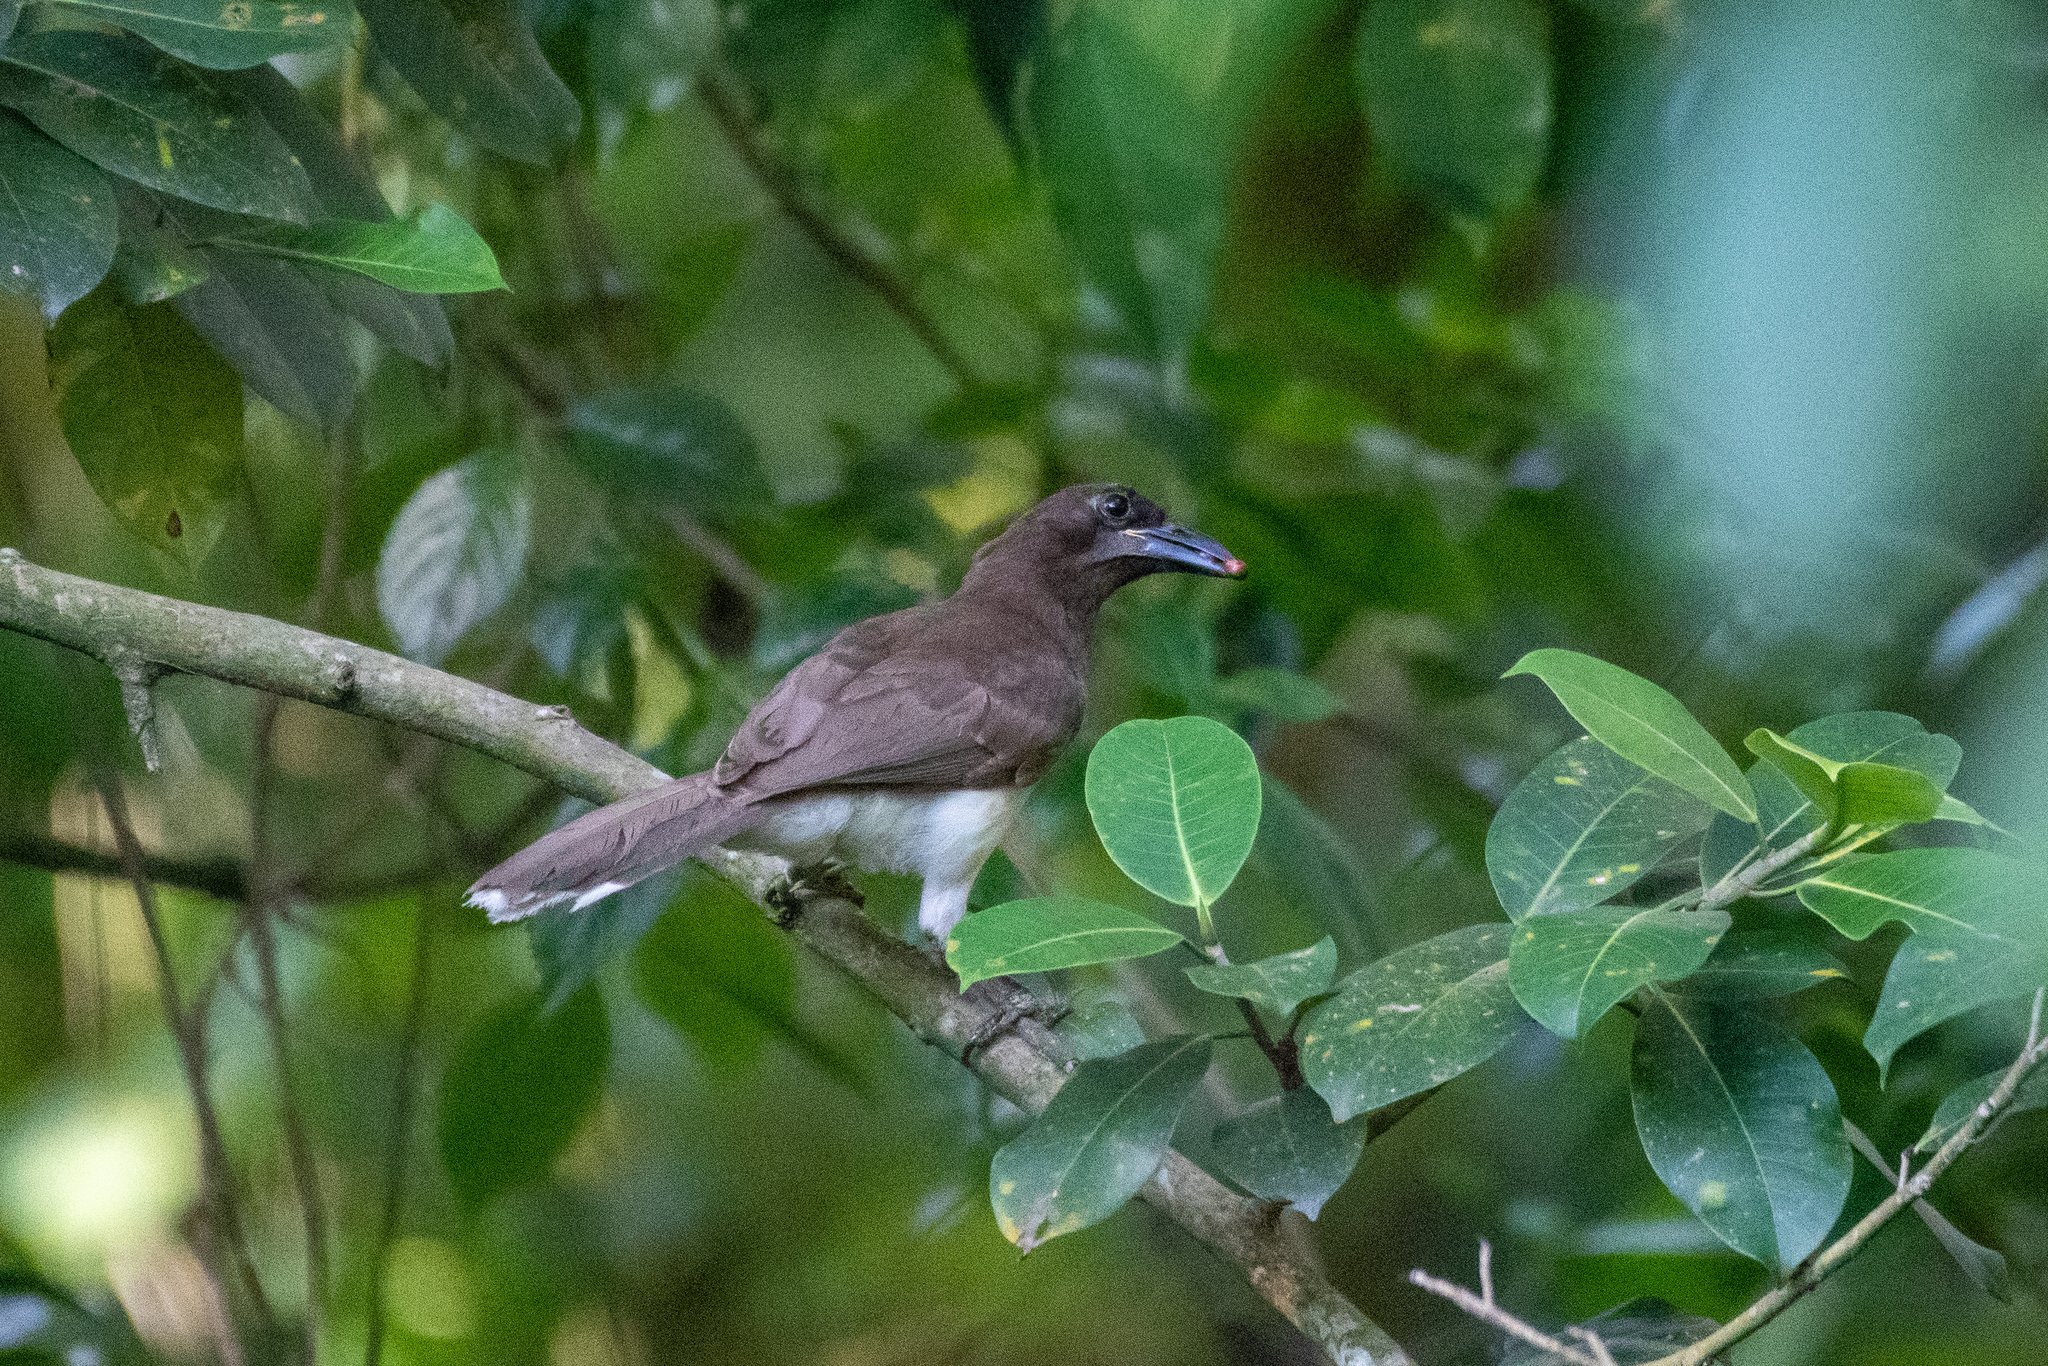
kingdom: Animalia
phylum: Chordata
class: Aves
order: Passeriformes
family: Corvidae
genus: Psilorhinus
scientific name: Psilorhinus morio
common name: Brown jay
